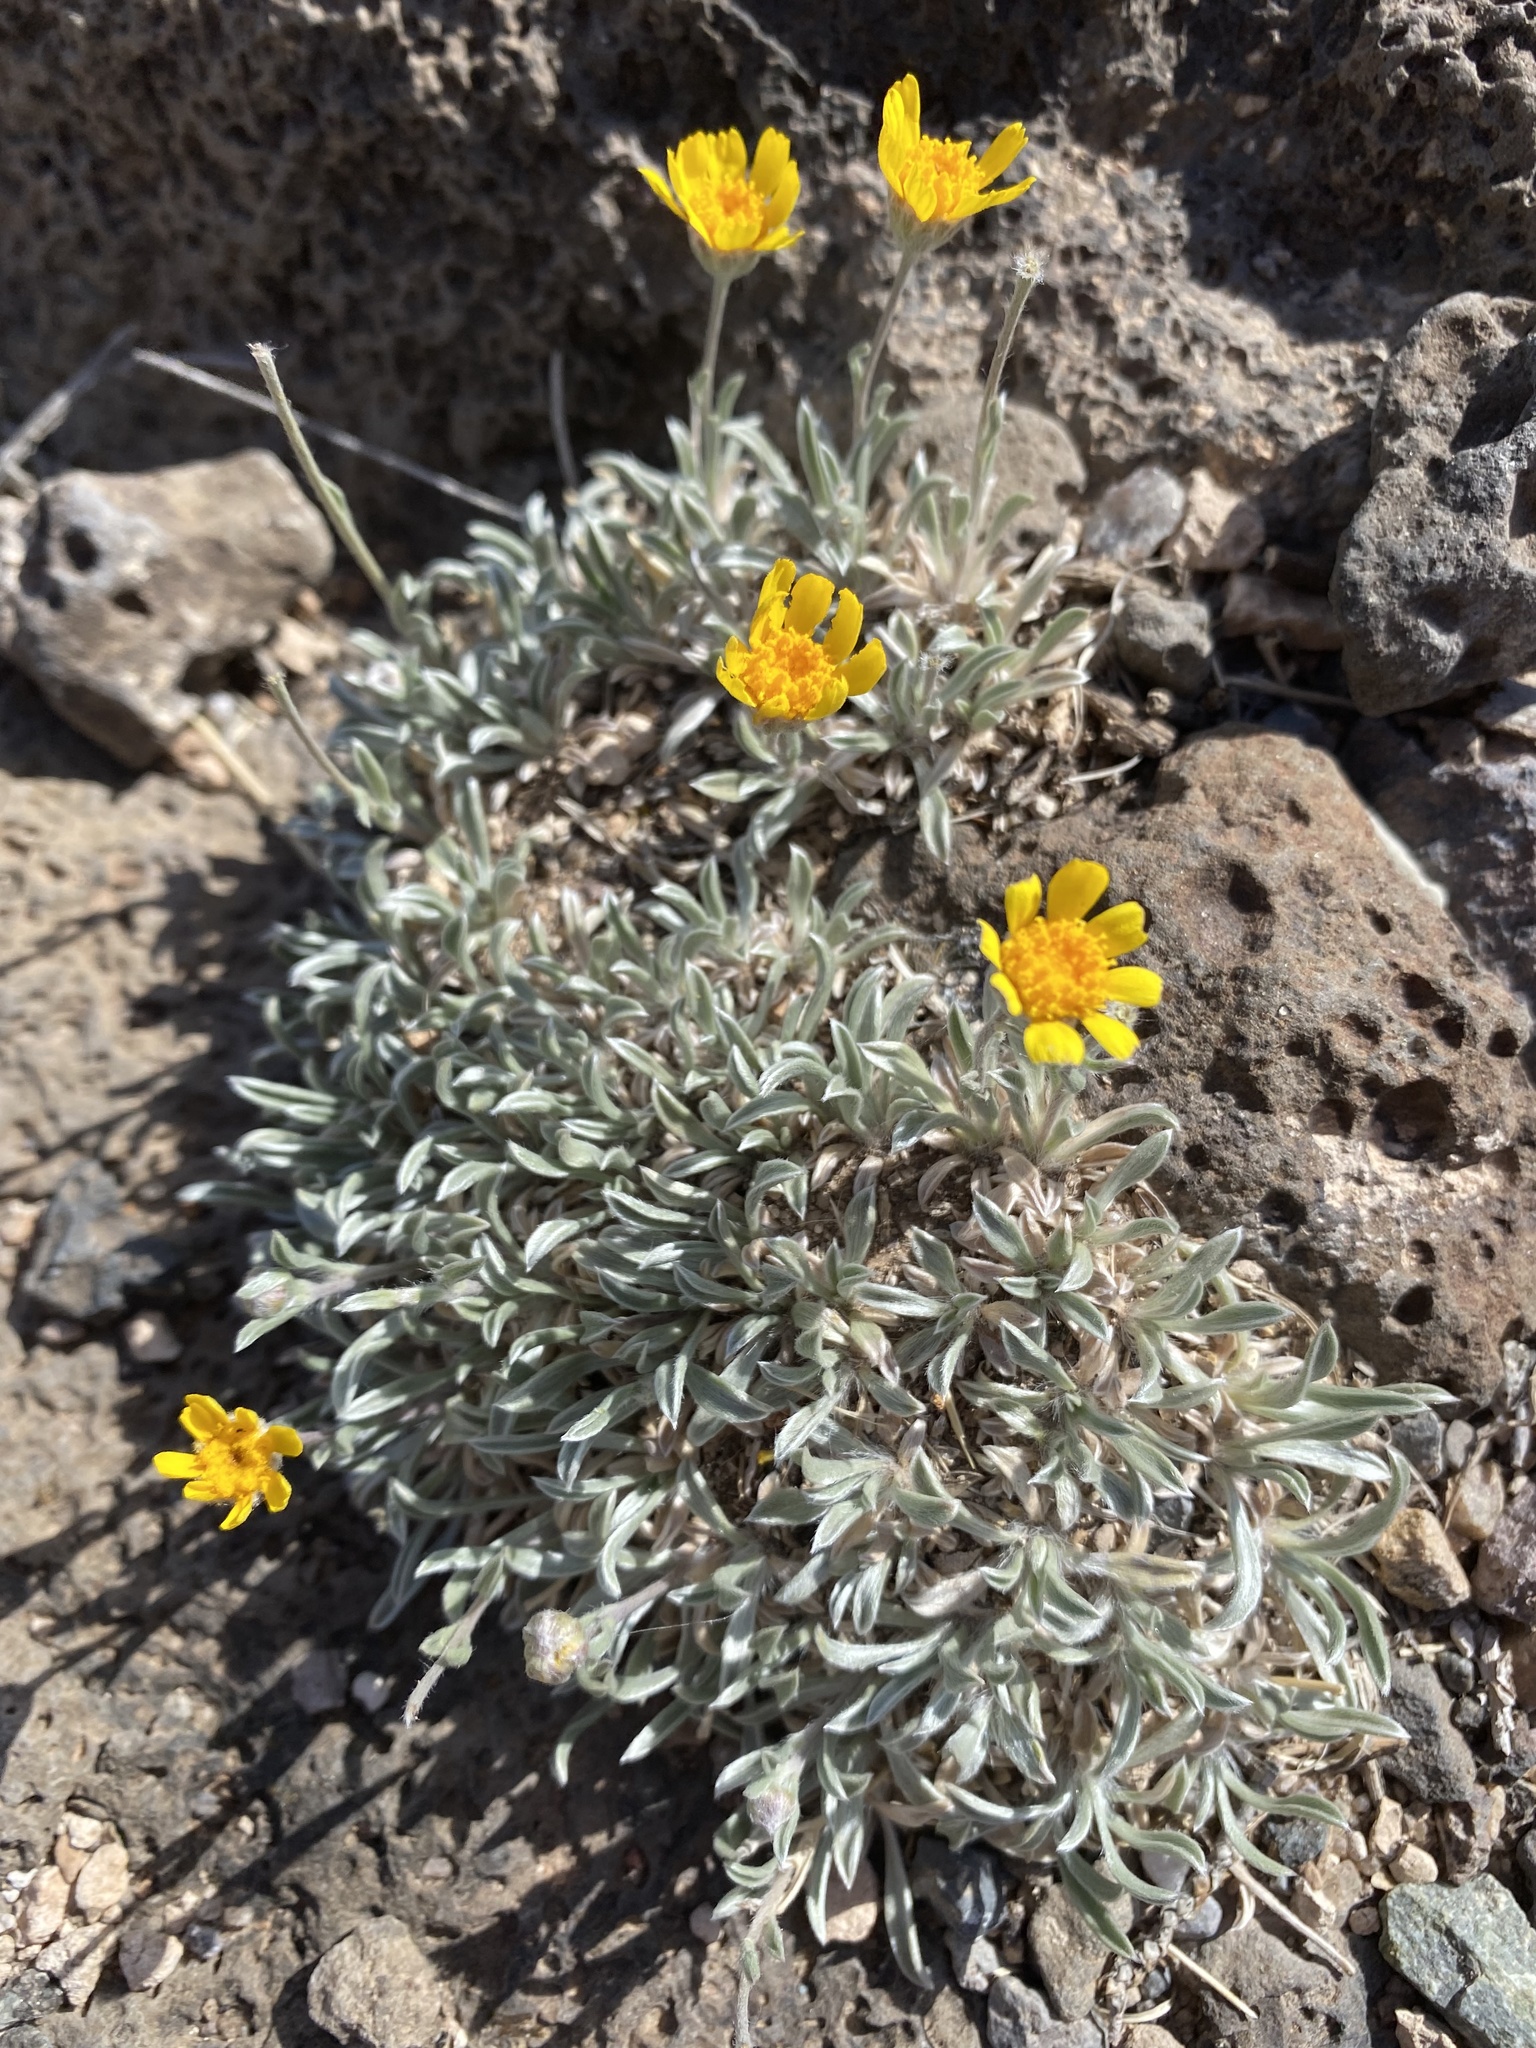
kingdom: Plantae
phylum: Tracheophyta
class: Magnoliopsida
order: Asterales
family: Asteraceae
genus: Tetraneuris
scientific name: Tetraneuris argentea
